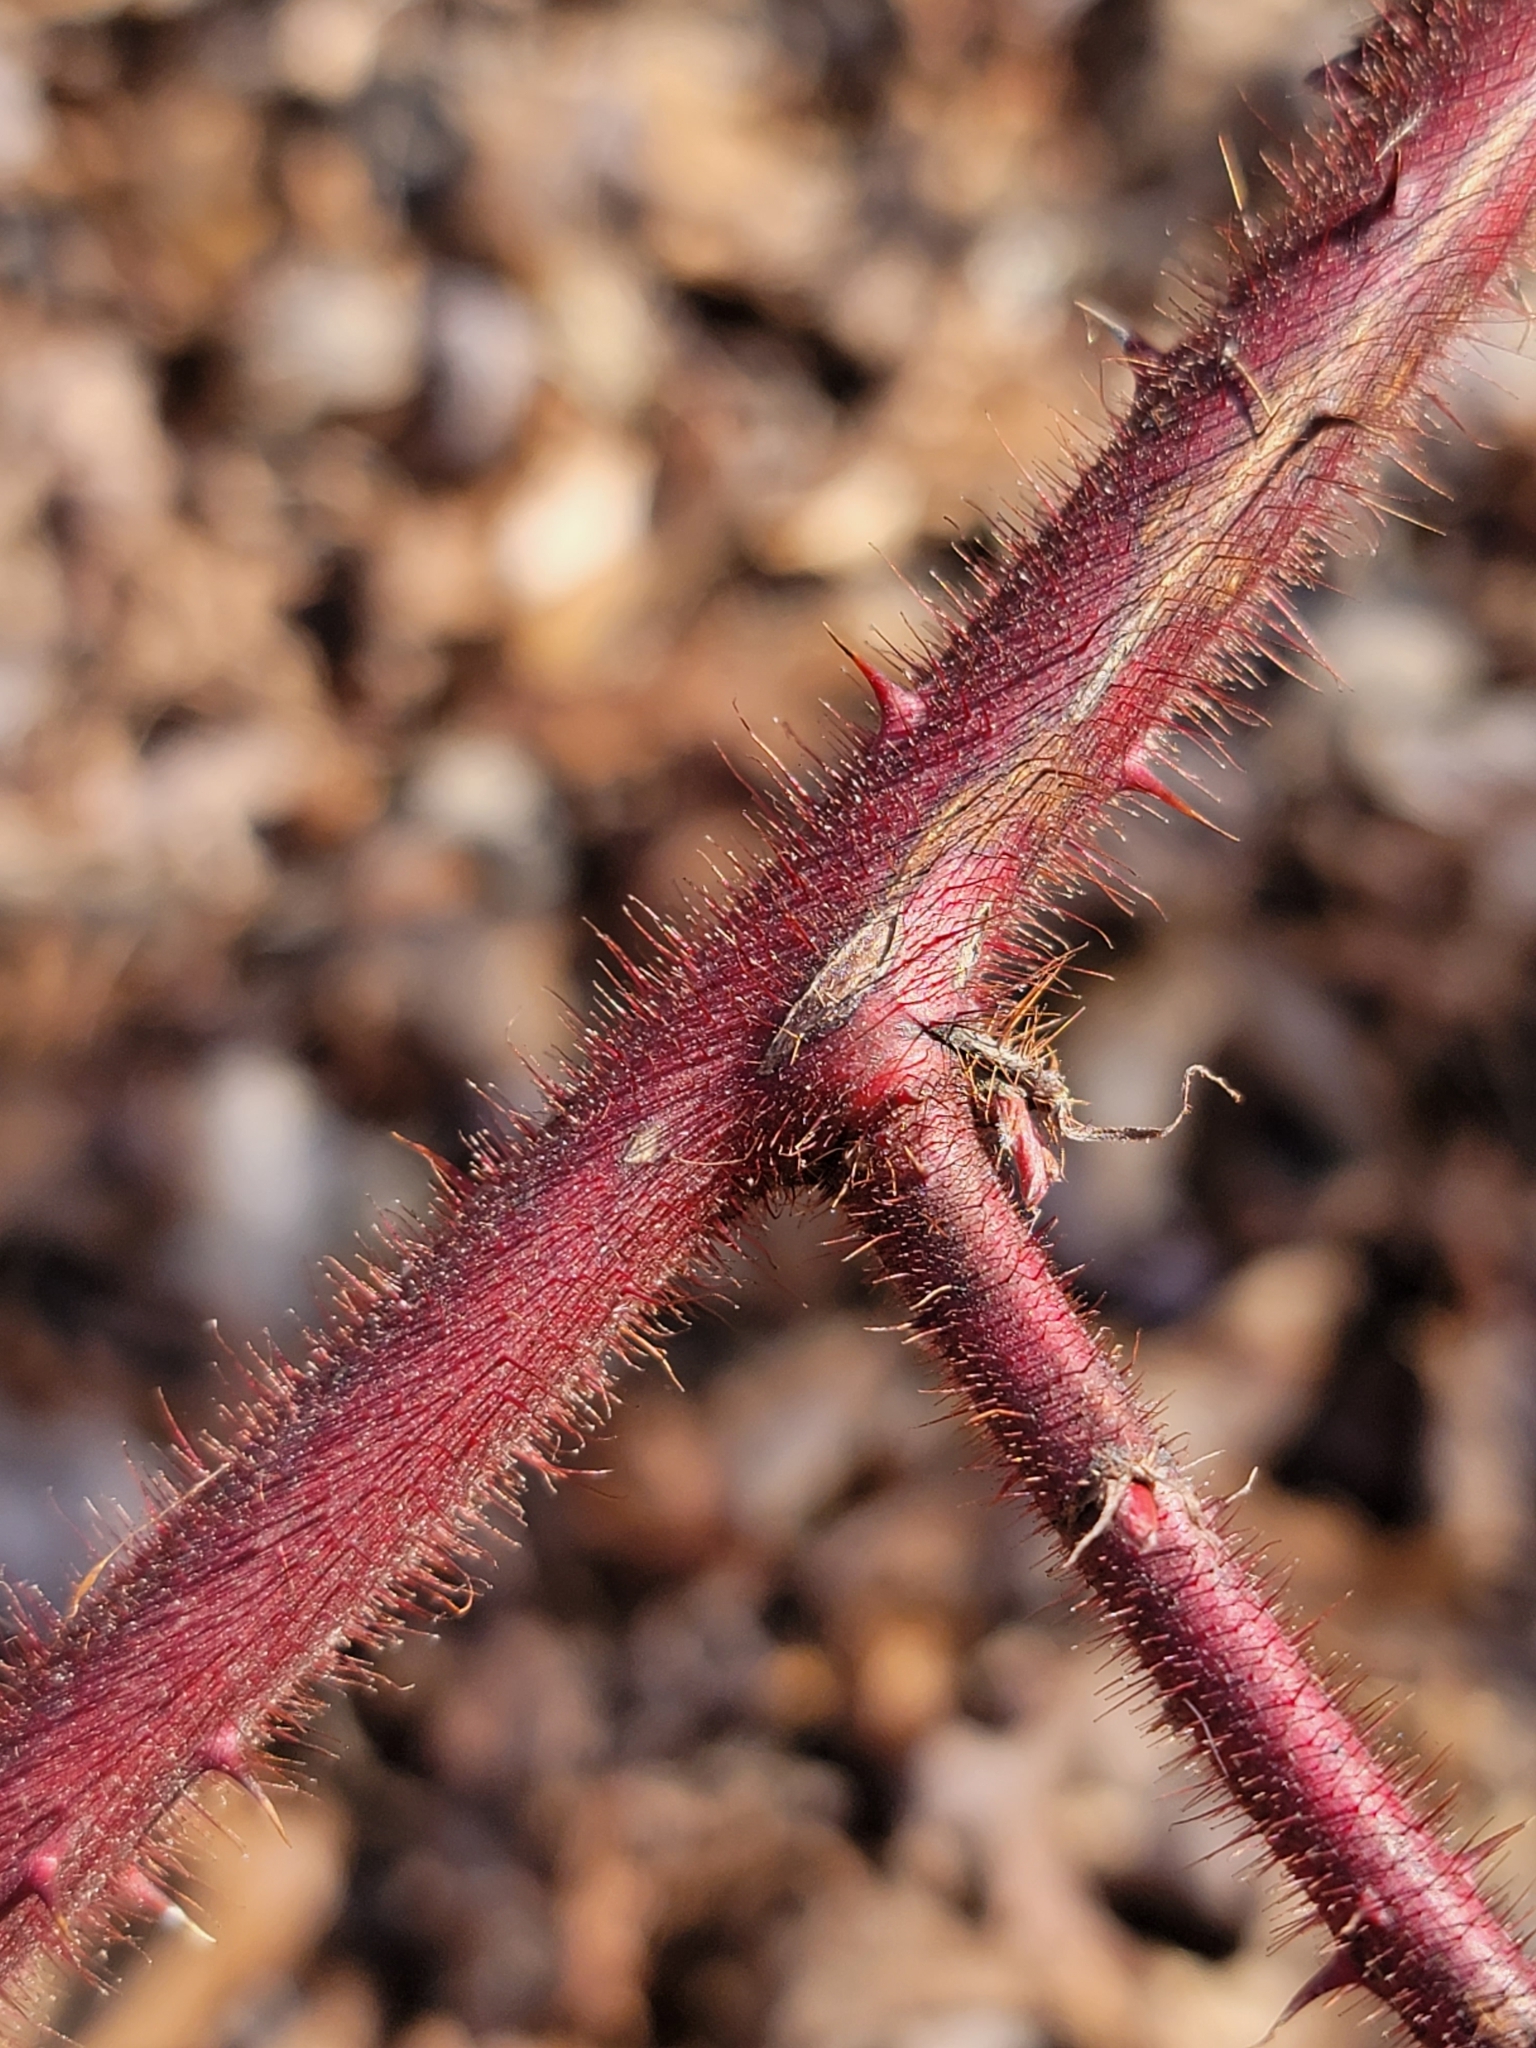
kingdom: Plantae
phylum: Tracheophyta
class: Magnoliopsida
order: Rosales
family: Rosaceae
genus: Rubus
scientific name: Rubus phoenicolasius
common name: Japanese wineberry
